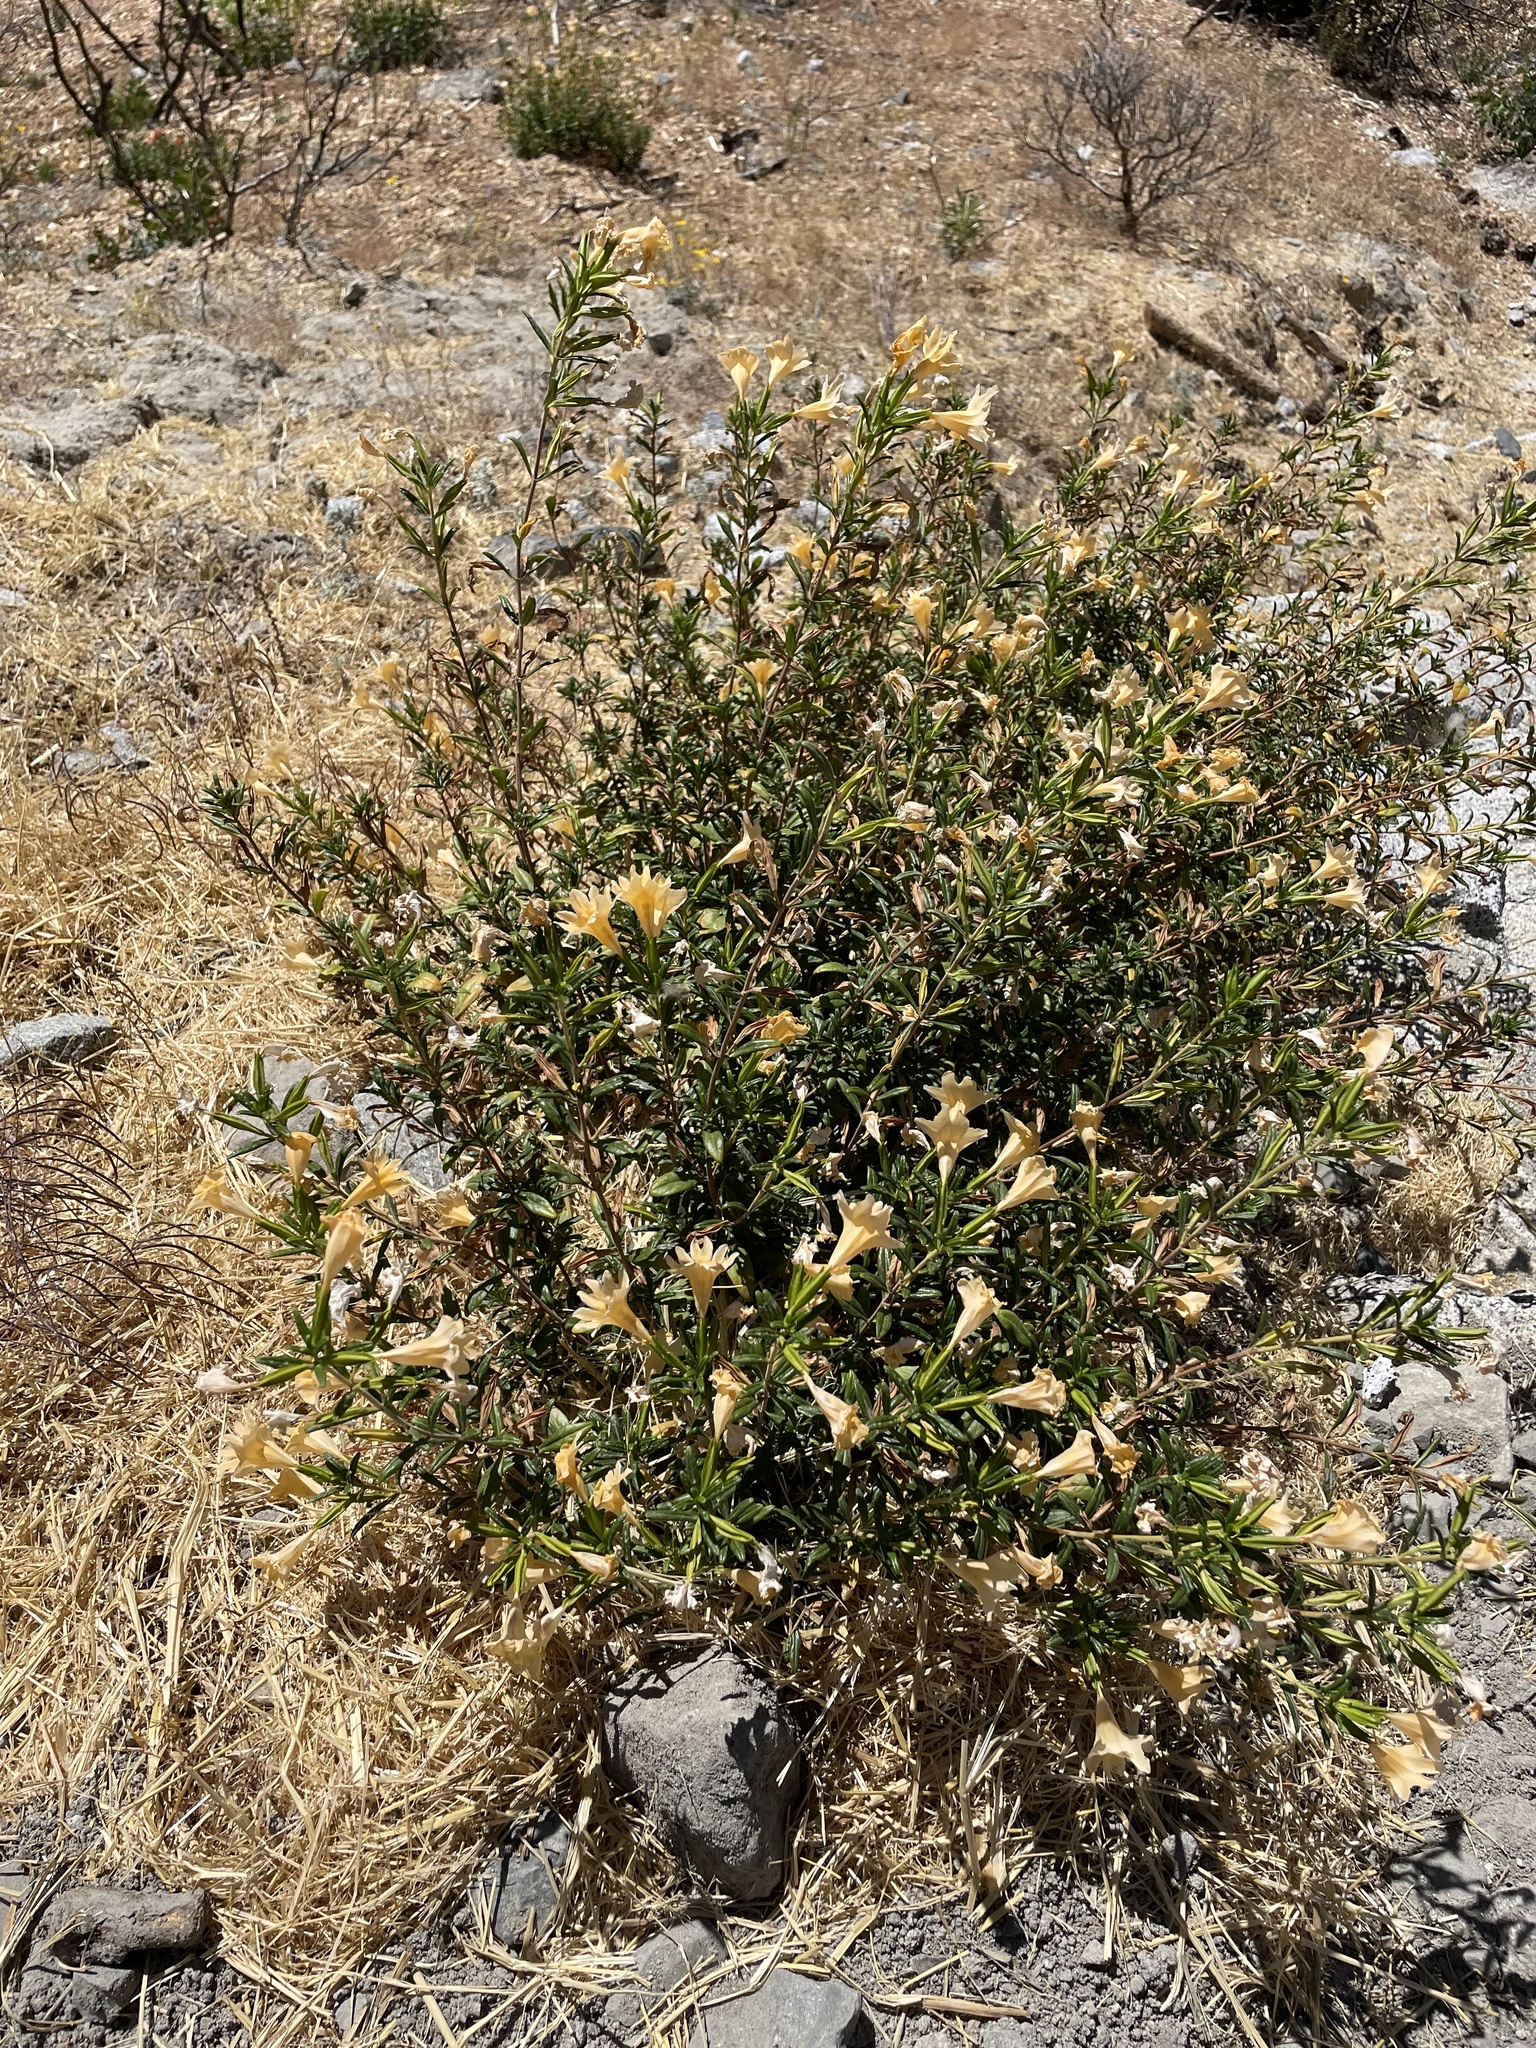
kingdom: Plantae
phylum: Tracheophyta
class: Magnoliopsida
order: Lamiales
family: Phrymaceae
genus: Diplacus
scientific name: Diplacus grandiflorus
